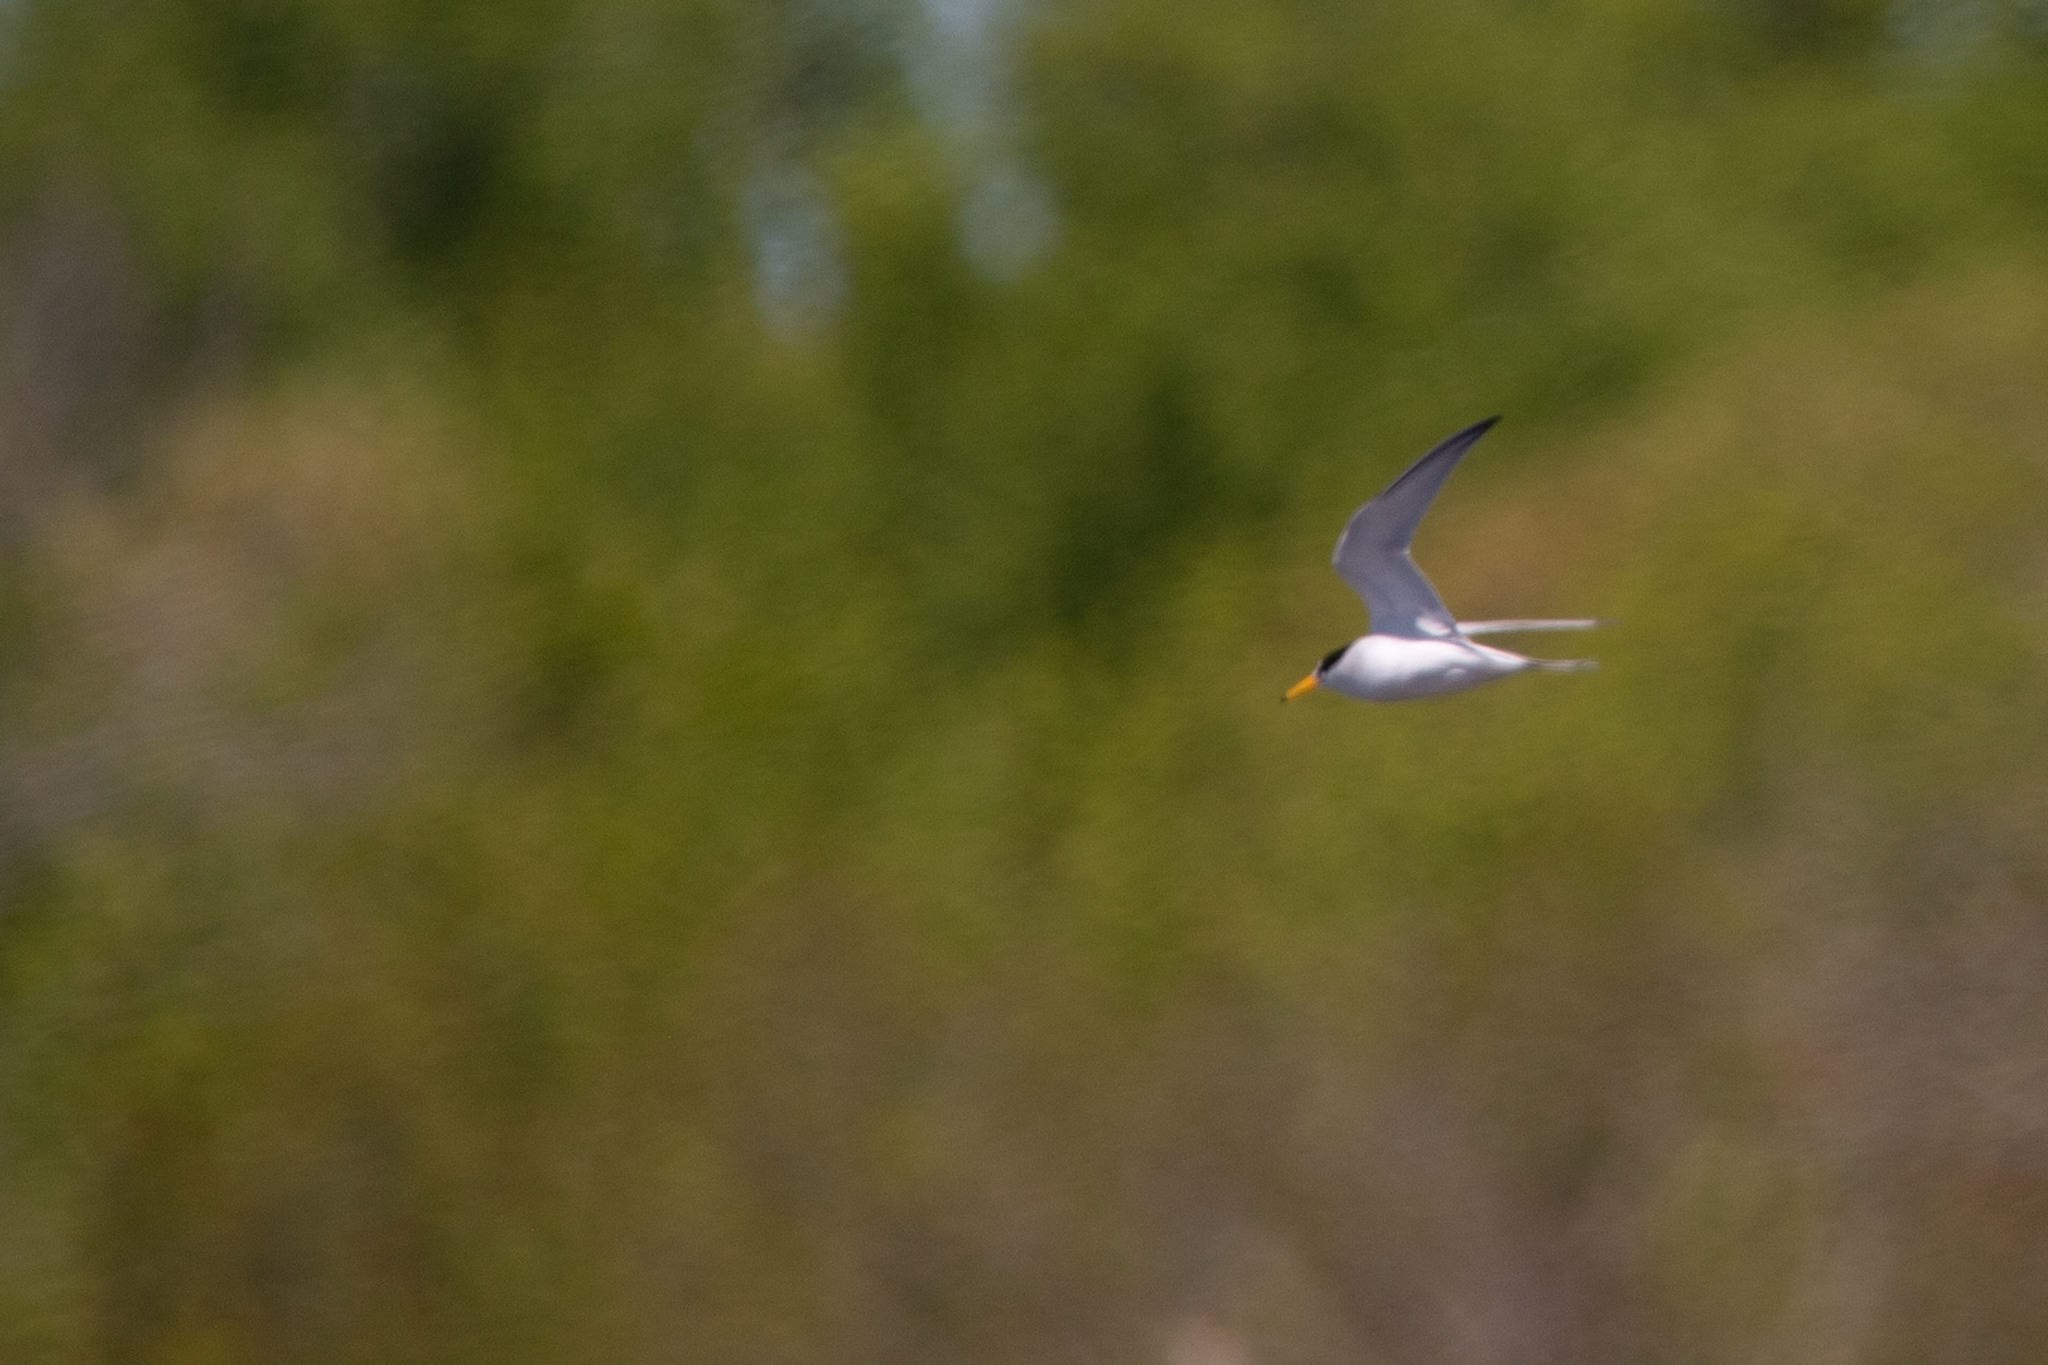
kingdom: Animalia
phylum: Chordata
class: Aves
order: Charadriiformes
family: Laridae
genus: Sternula
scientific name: Sternula antillarum
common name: Least tern
